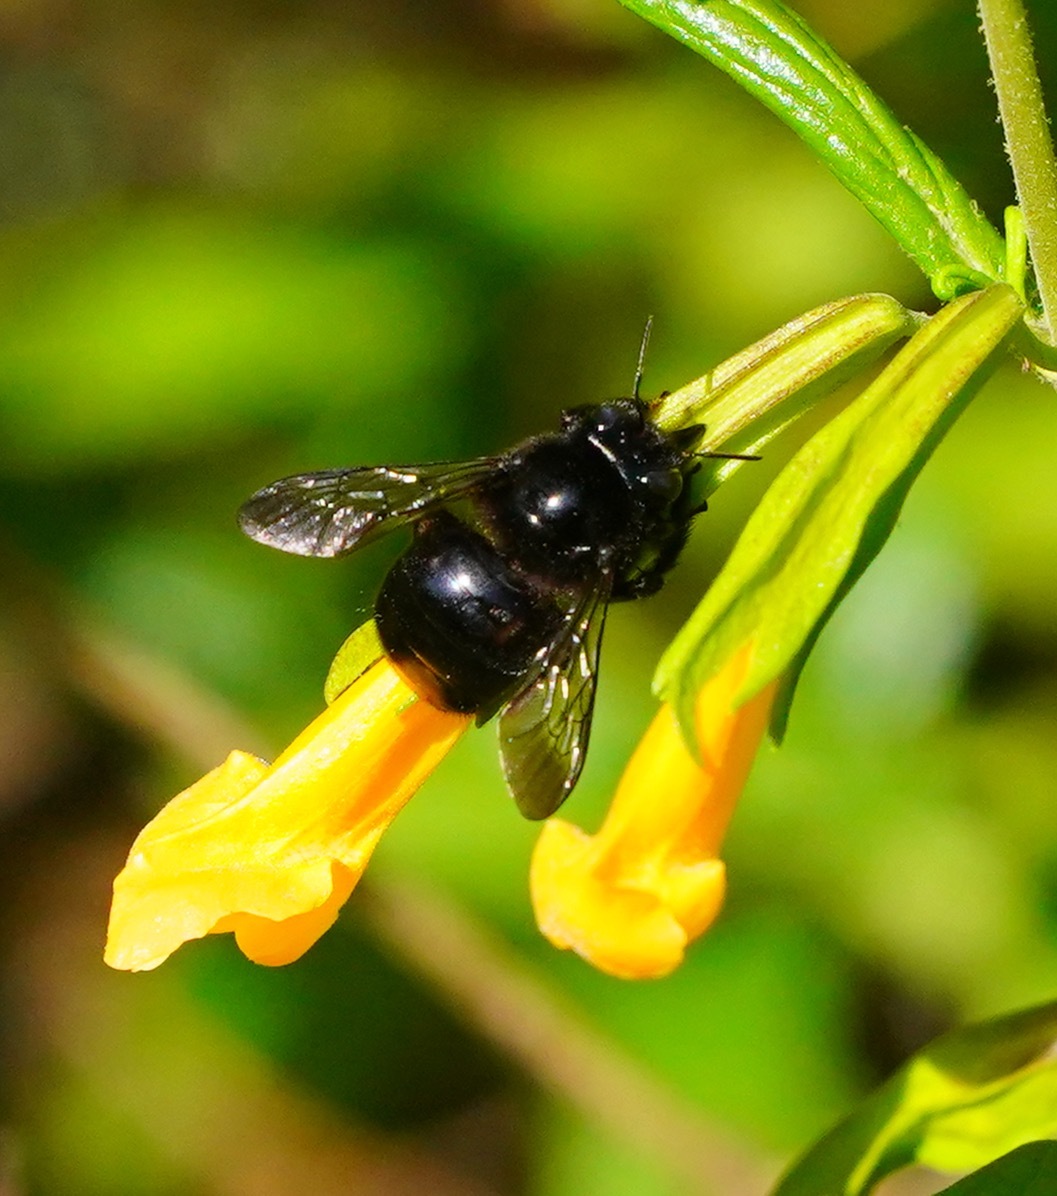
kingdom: Animalia
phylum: Arthropoda
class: Insecta
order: Hymenoptera
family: Apidae
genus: Xylocopa
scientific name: Xylocopa tabaniformis
